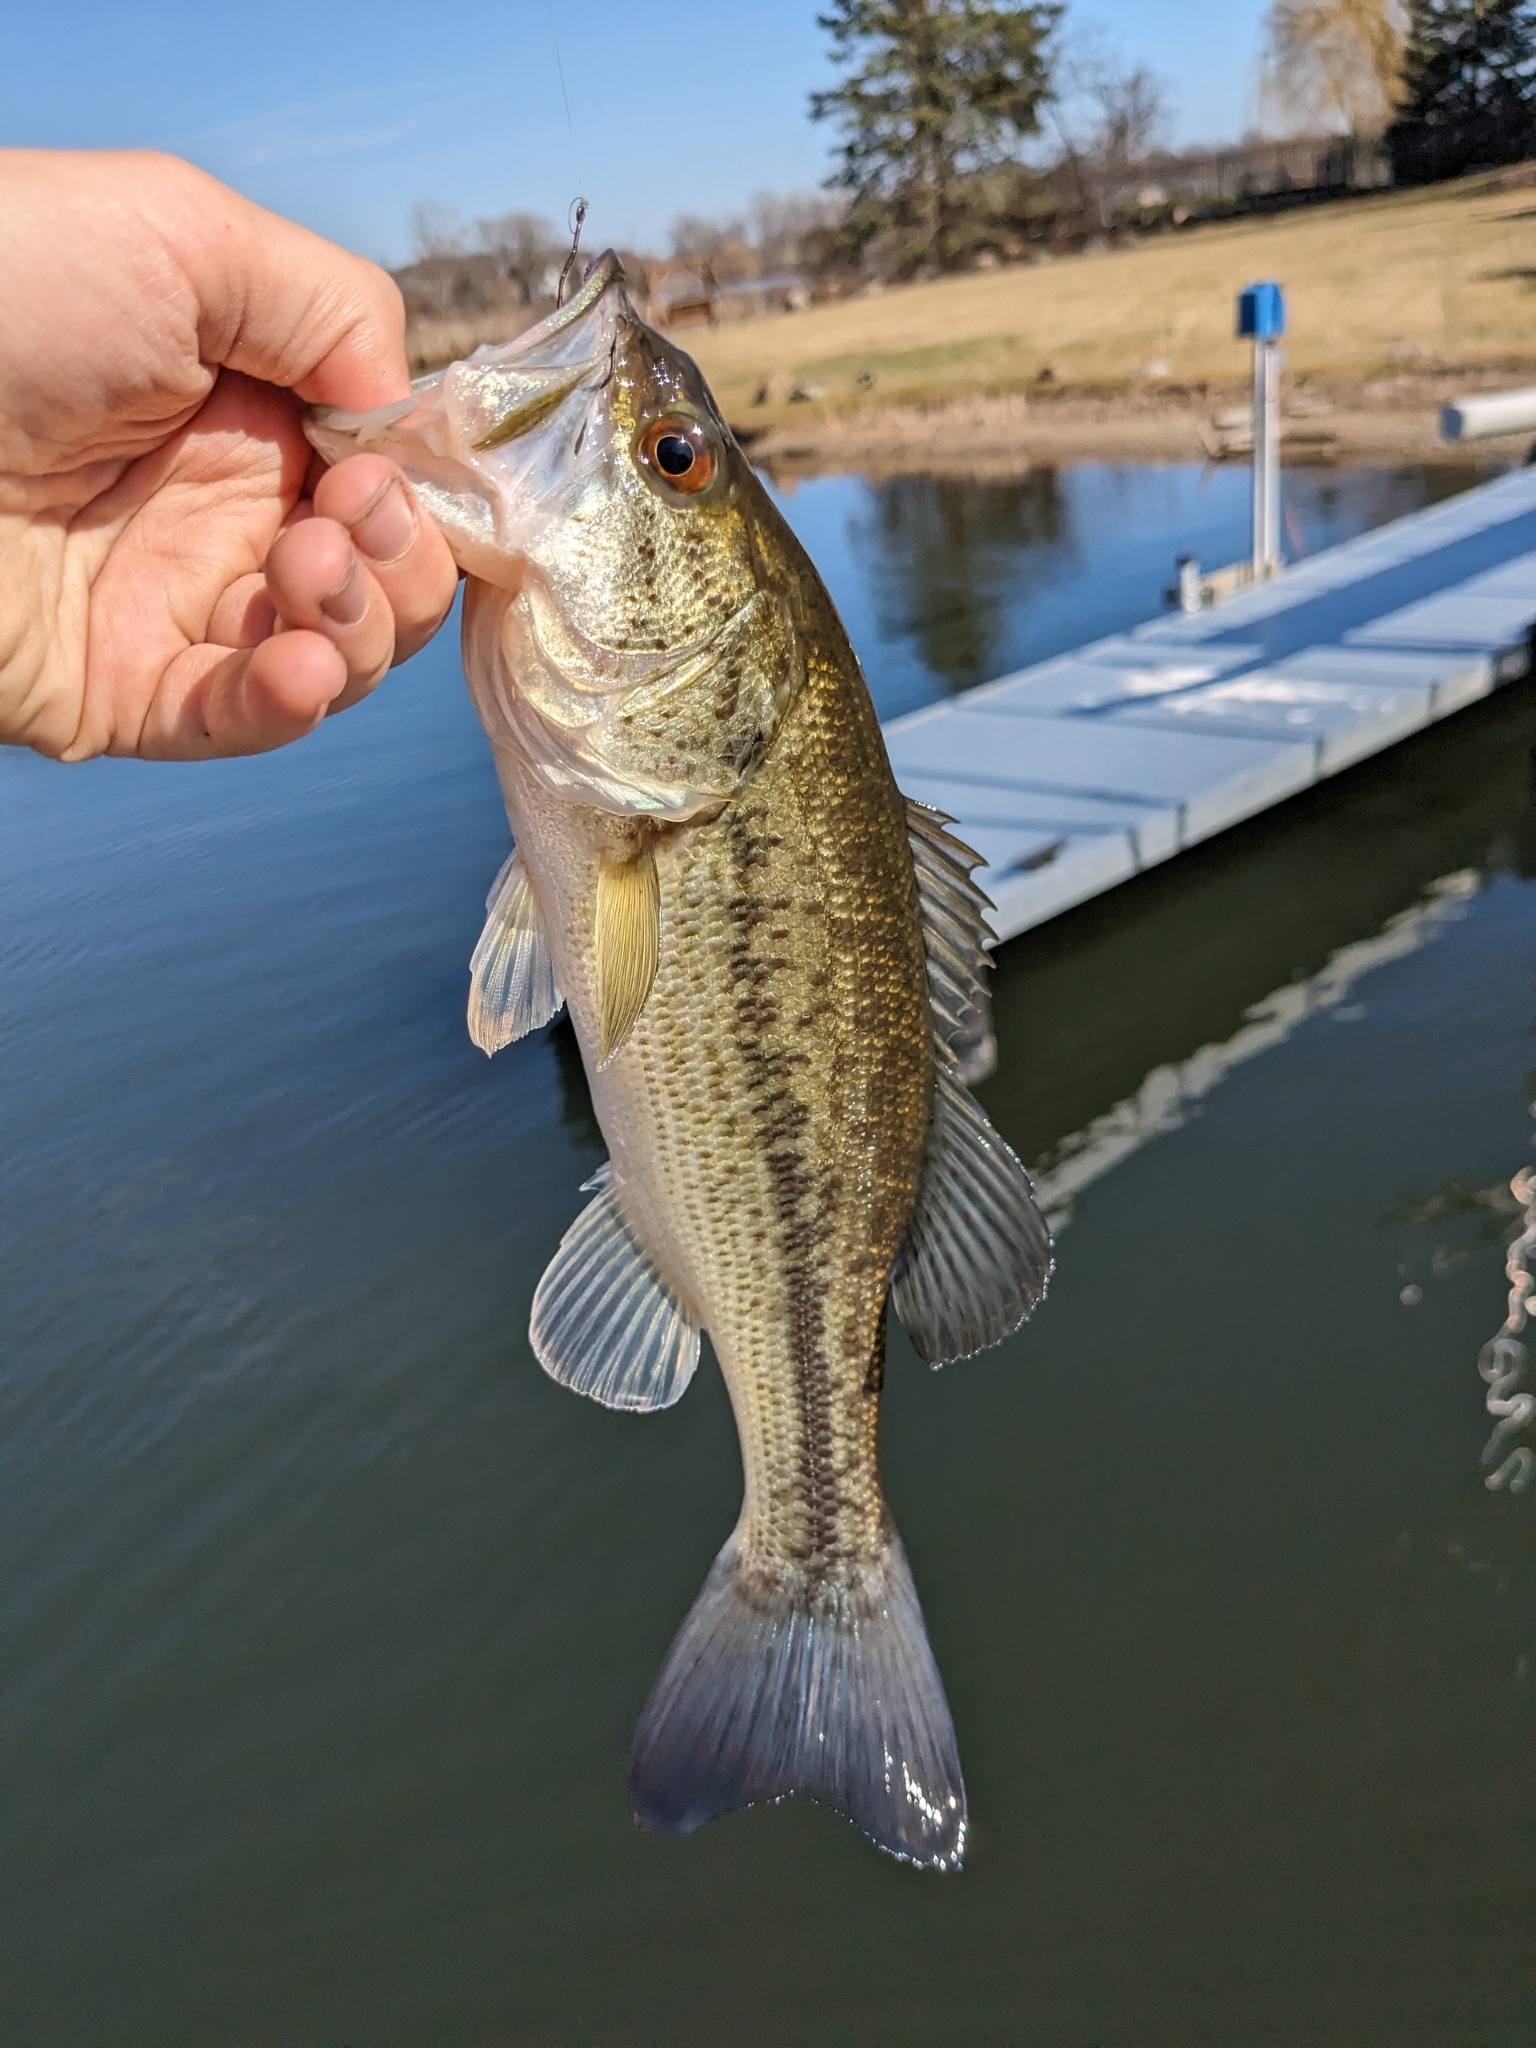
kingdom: Animalia
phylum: Chordata
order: Perciformes
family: Centrarchidae
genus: Micropterus
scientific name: Micropterus
